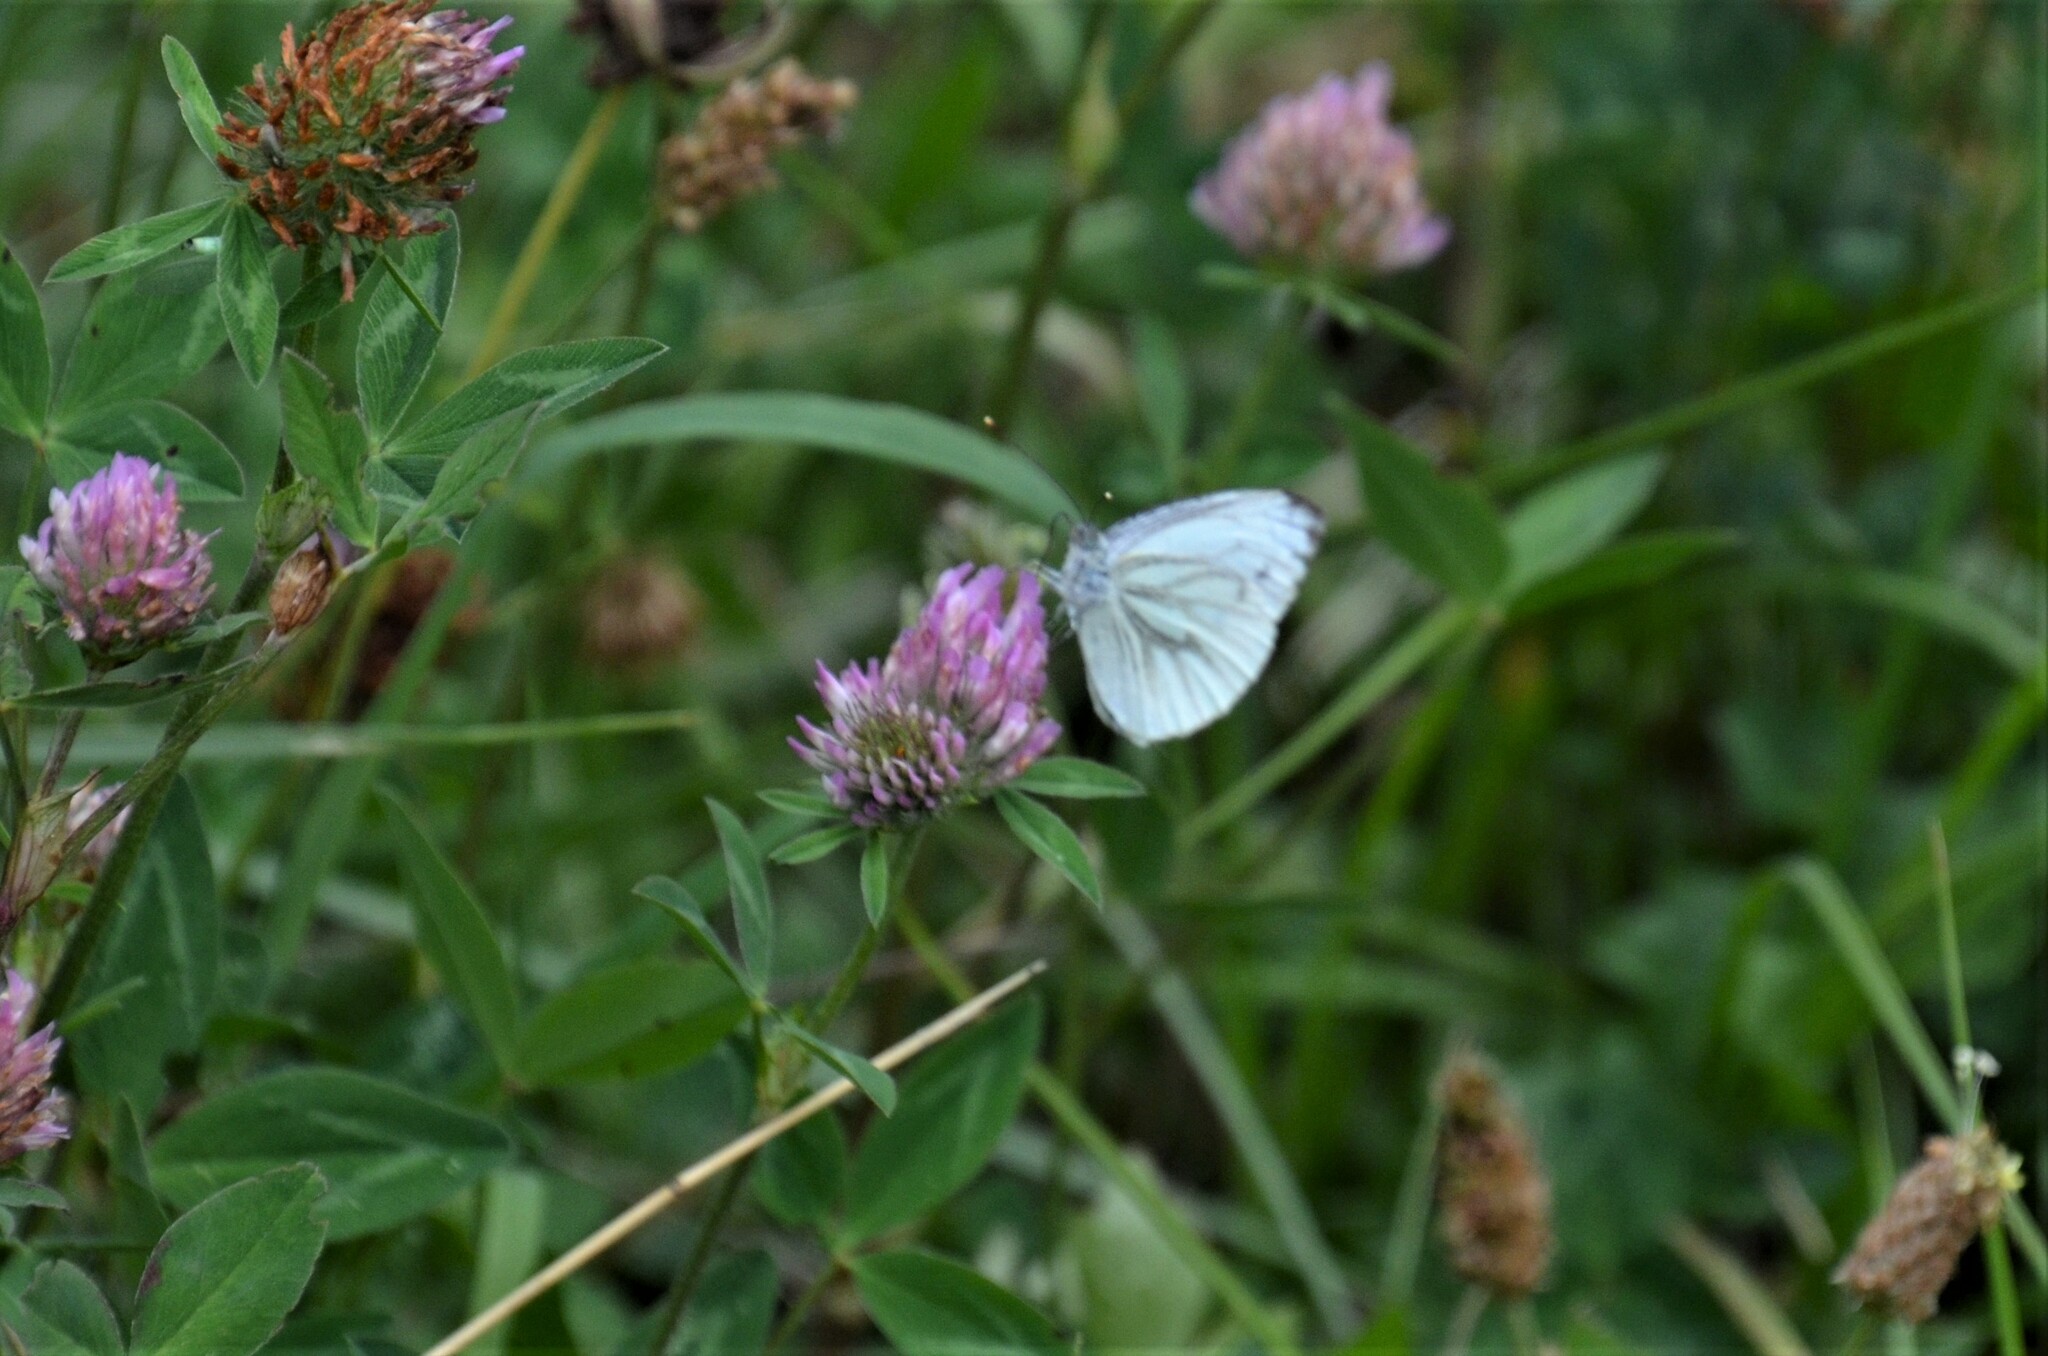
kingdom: Animalia
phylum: Arthropoda
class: Insecta
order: Lepidoptera
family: Pieridae
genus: Pieris
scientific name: Pieris napi
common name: Green-veined white
